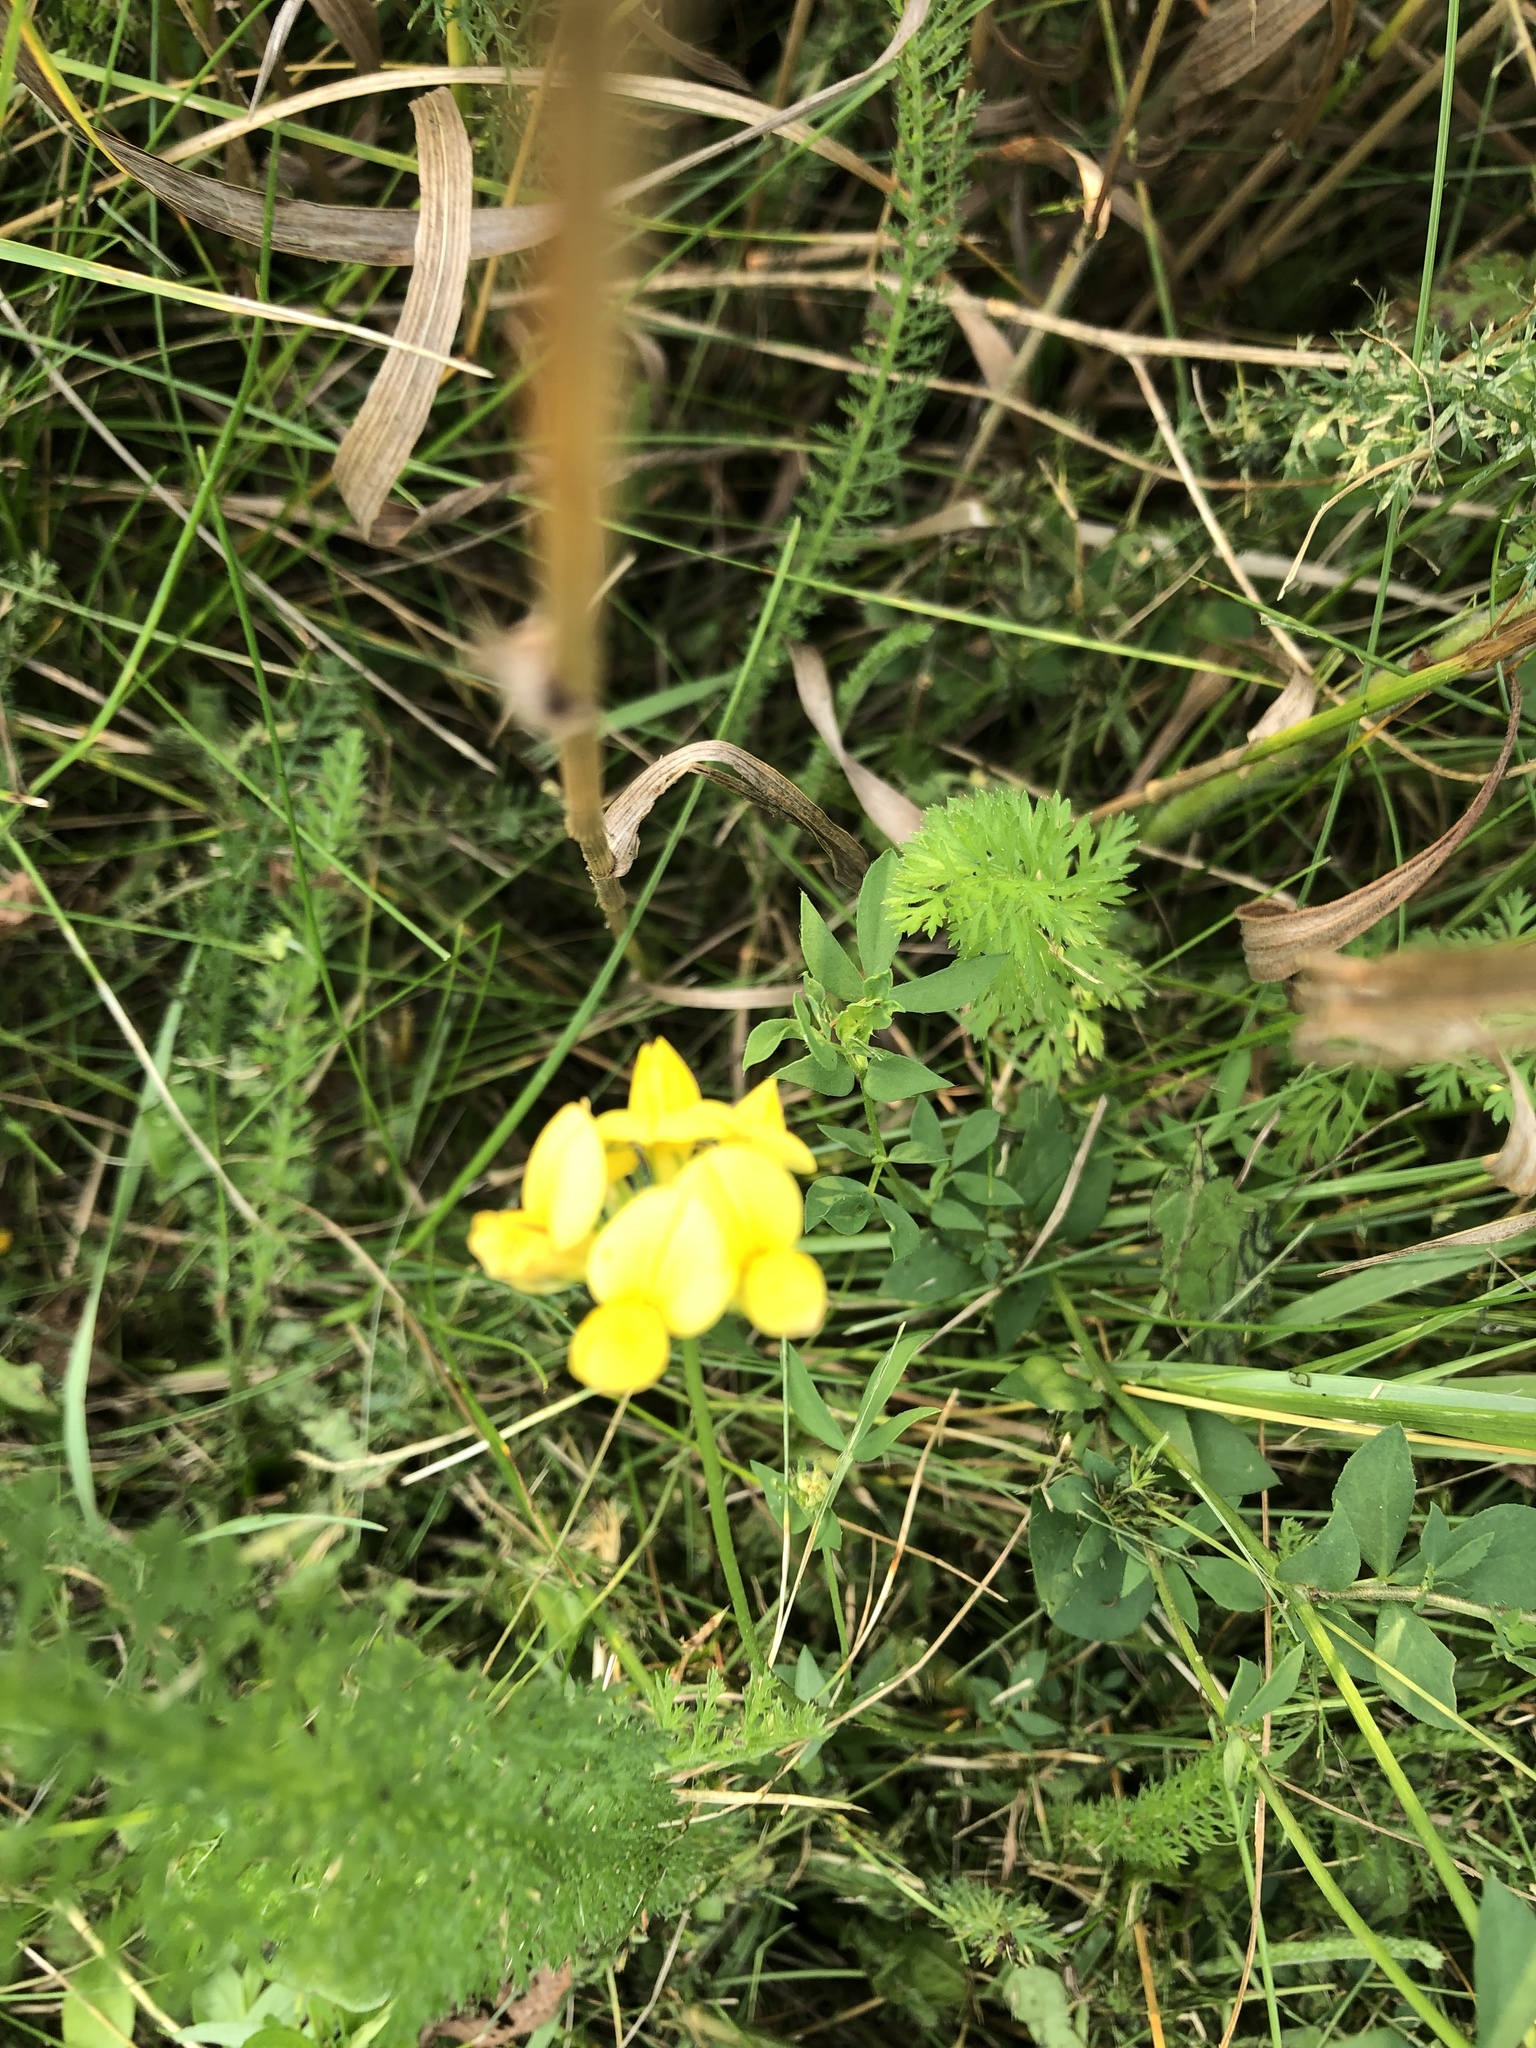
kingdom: Plantae
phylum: Tracheophyta
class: Magnoliopsida
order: Fabales
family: Fabaceae
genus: Lotus
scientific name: Lotus corniculatus
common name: Common bird's-foot-trefoil
